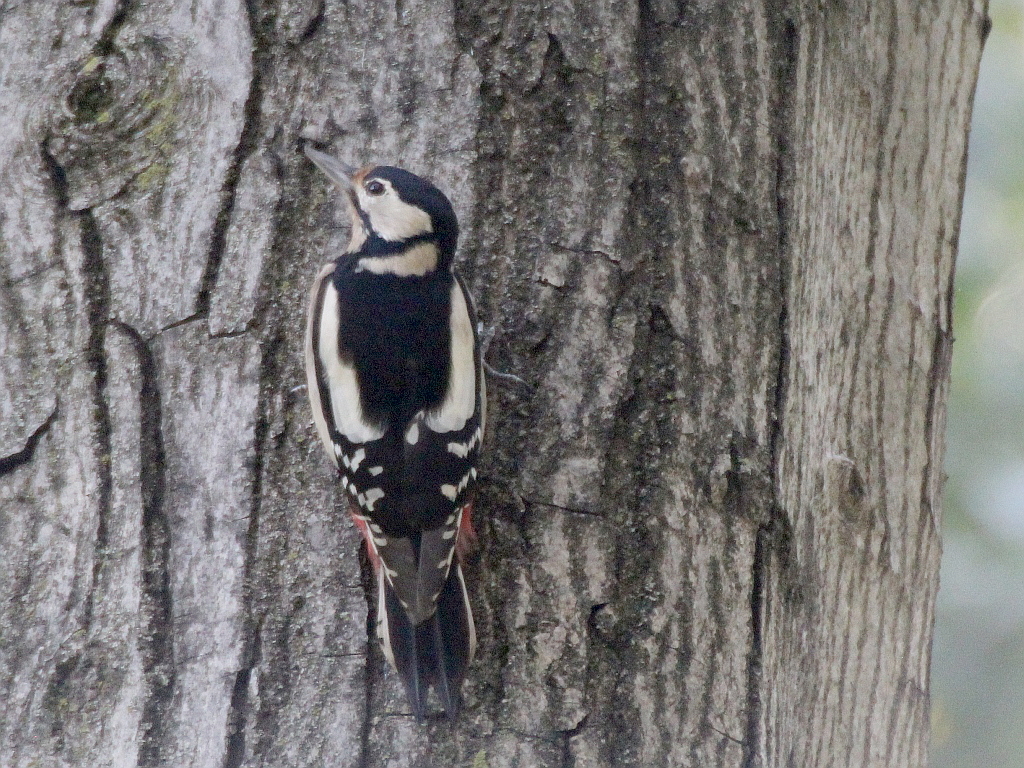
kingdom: Animalia
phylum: Chordata
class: Aves
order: Piciformes
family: Picidae
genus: Dendrocopos
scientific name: Dendrocopos major
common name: Great spotted woodpecker
